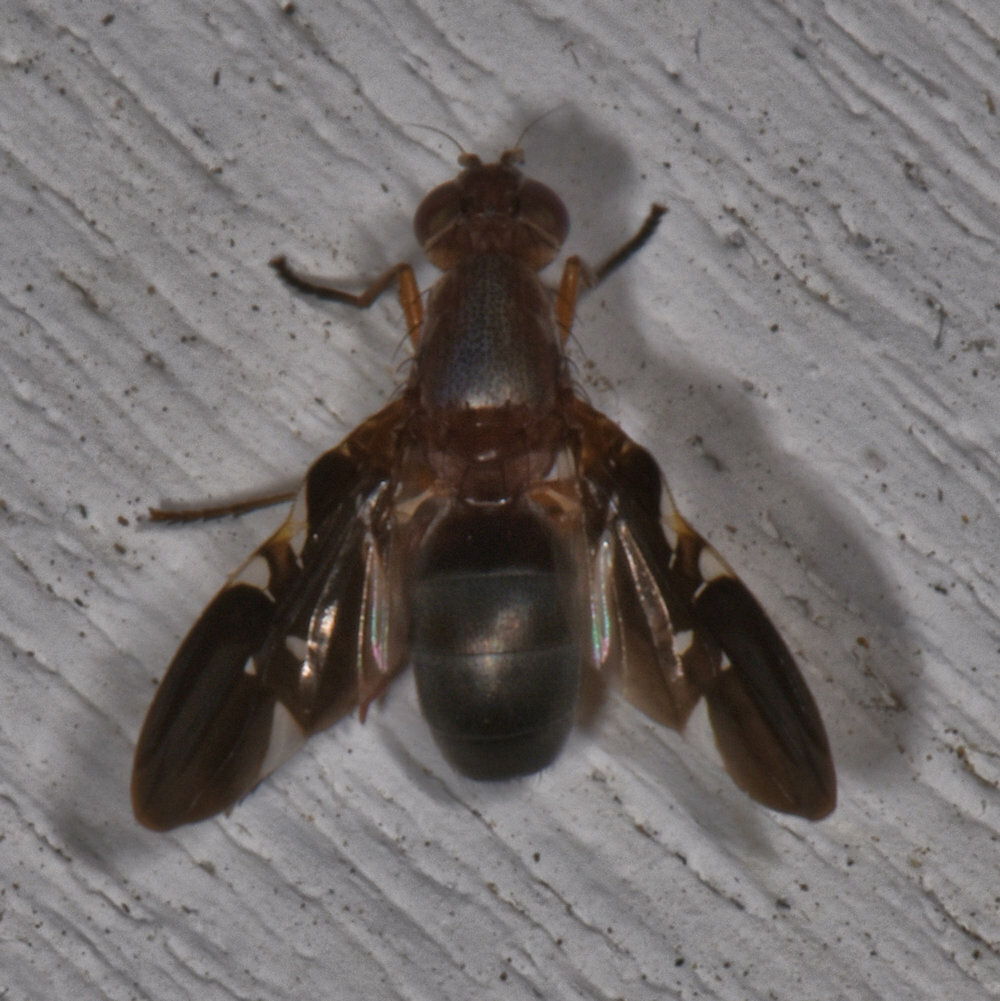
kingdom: Animalia
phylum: Arthropoda
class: Insecta
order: Diptera
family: Ulidiidae
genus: Delphinia
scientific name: Delphinia picta
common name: Common picture-winged fly
